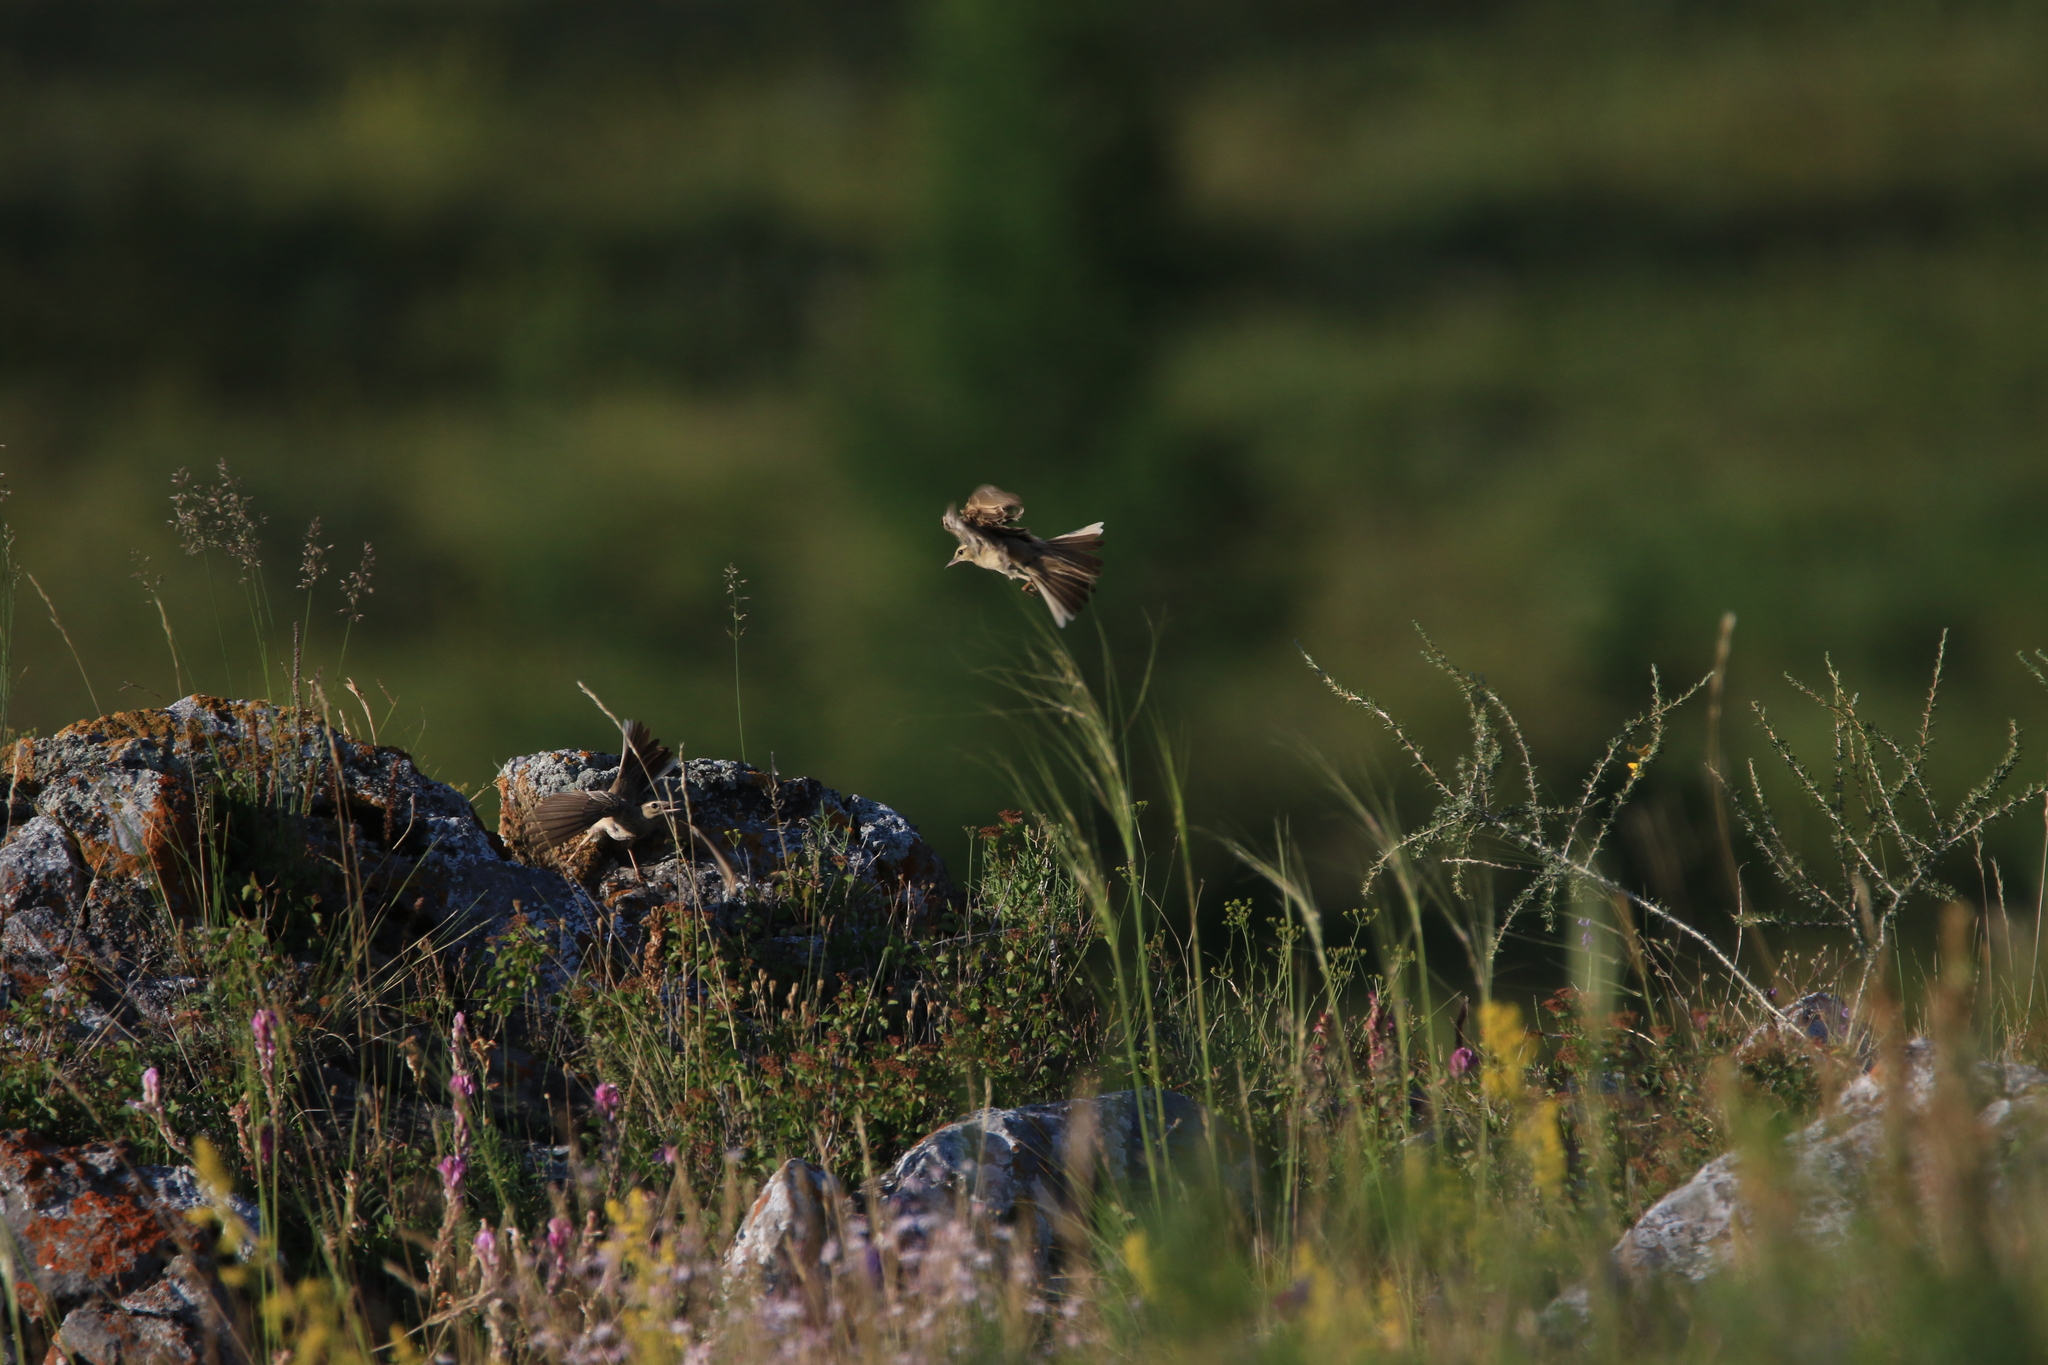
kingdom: Animalia
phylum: Chordata
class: Aves
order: Passeriformes
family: Motacillidae
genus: Anthus
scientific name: Anthus campestris
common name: Tawny pipit
